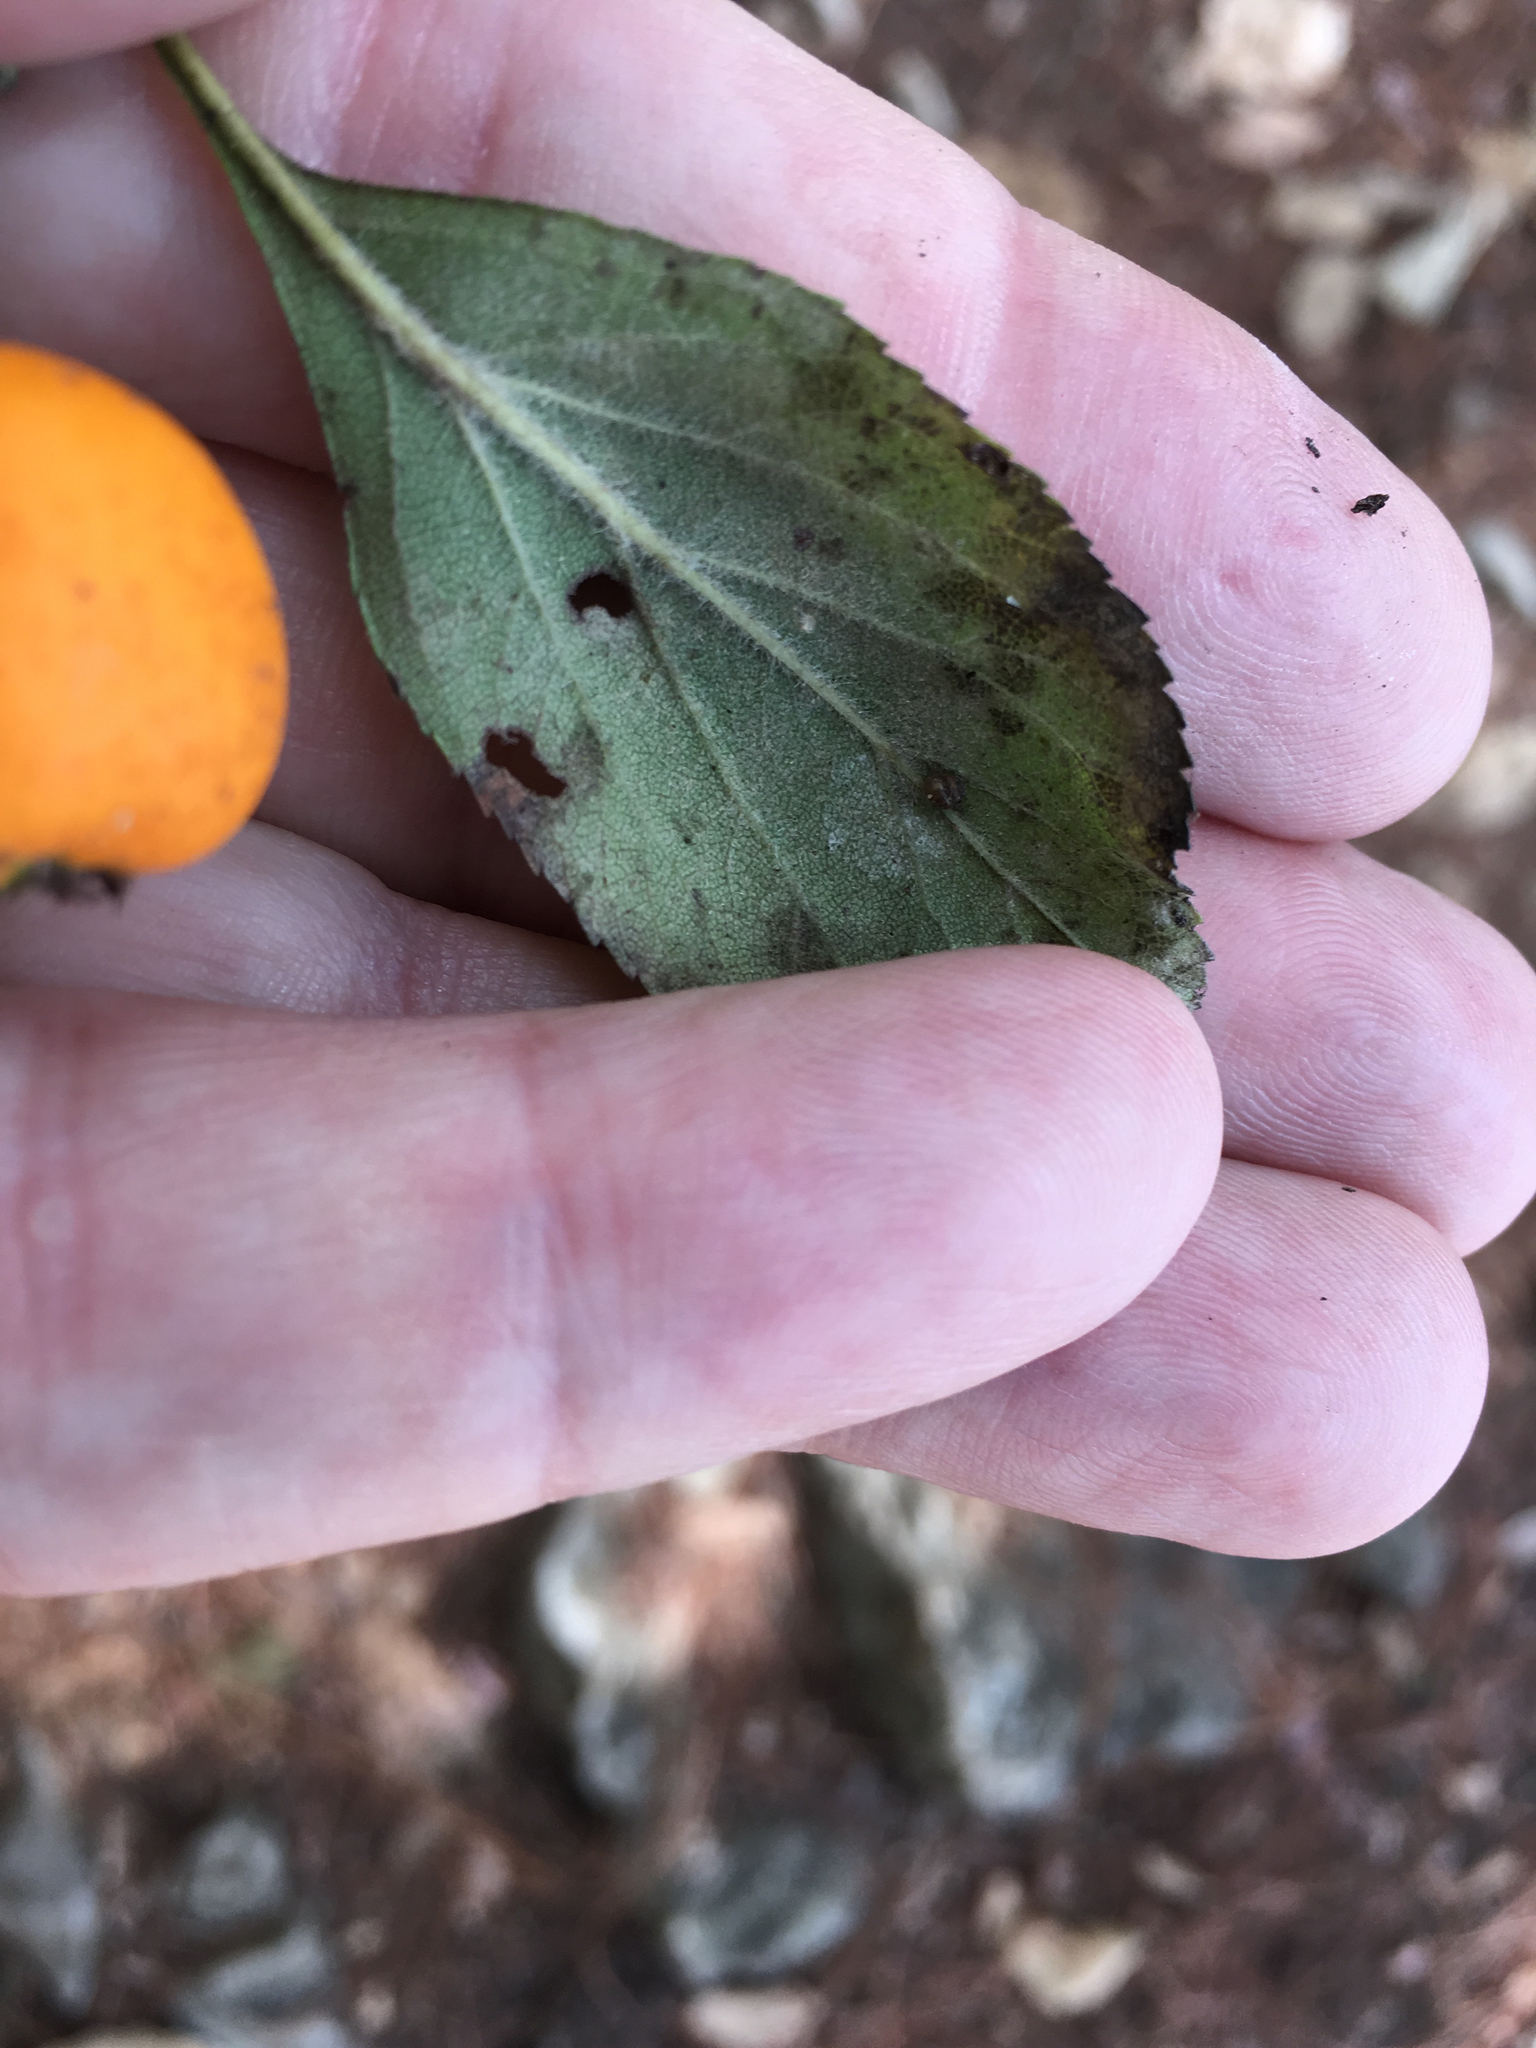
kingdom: Plantae
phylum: Tracheophyta
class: Magnoliopsida
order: Rosales
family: Rosaceae
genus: Crataegus
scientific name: Crataegus mexicana
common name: Mexican hawthorn
